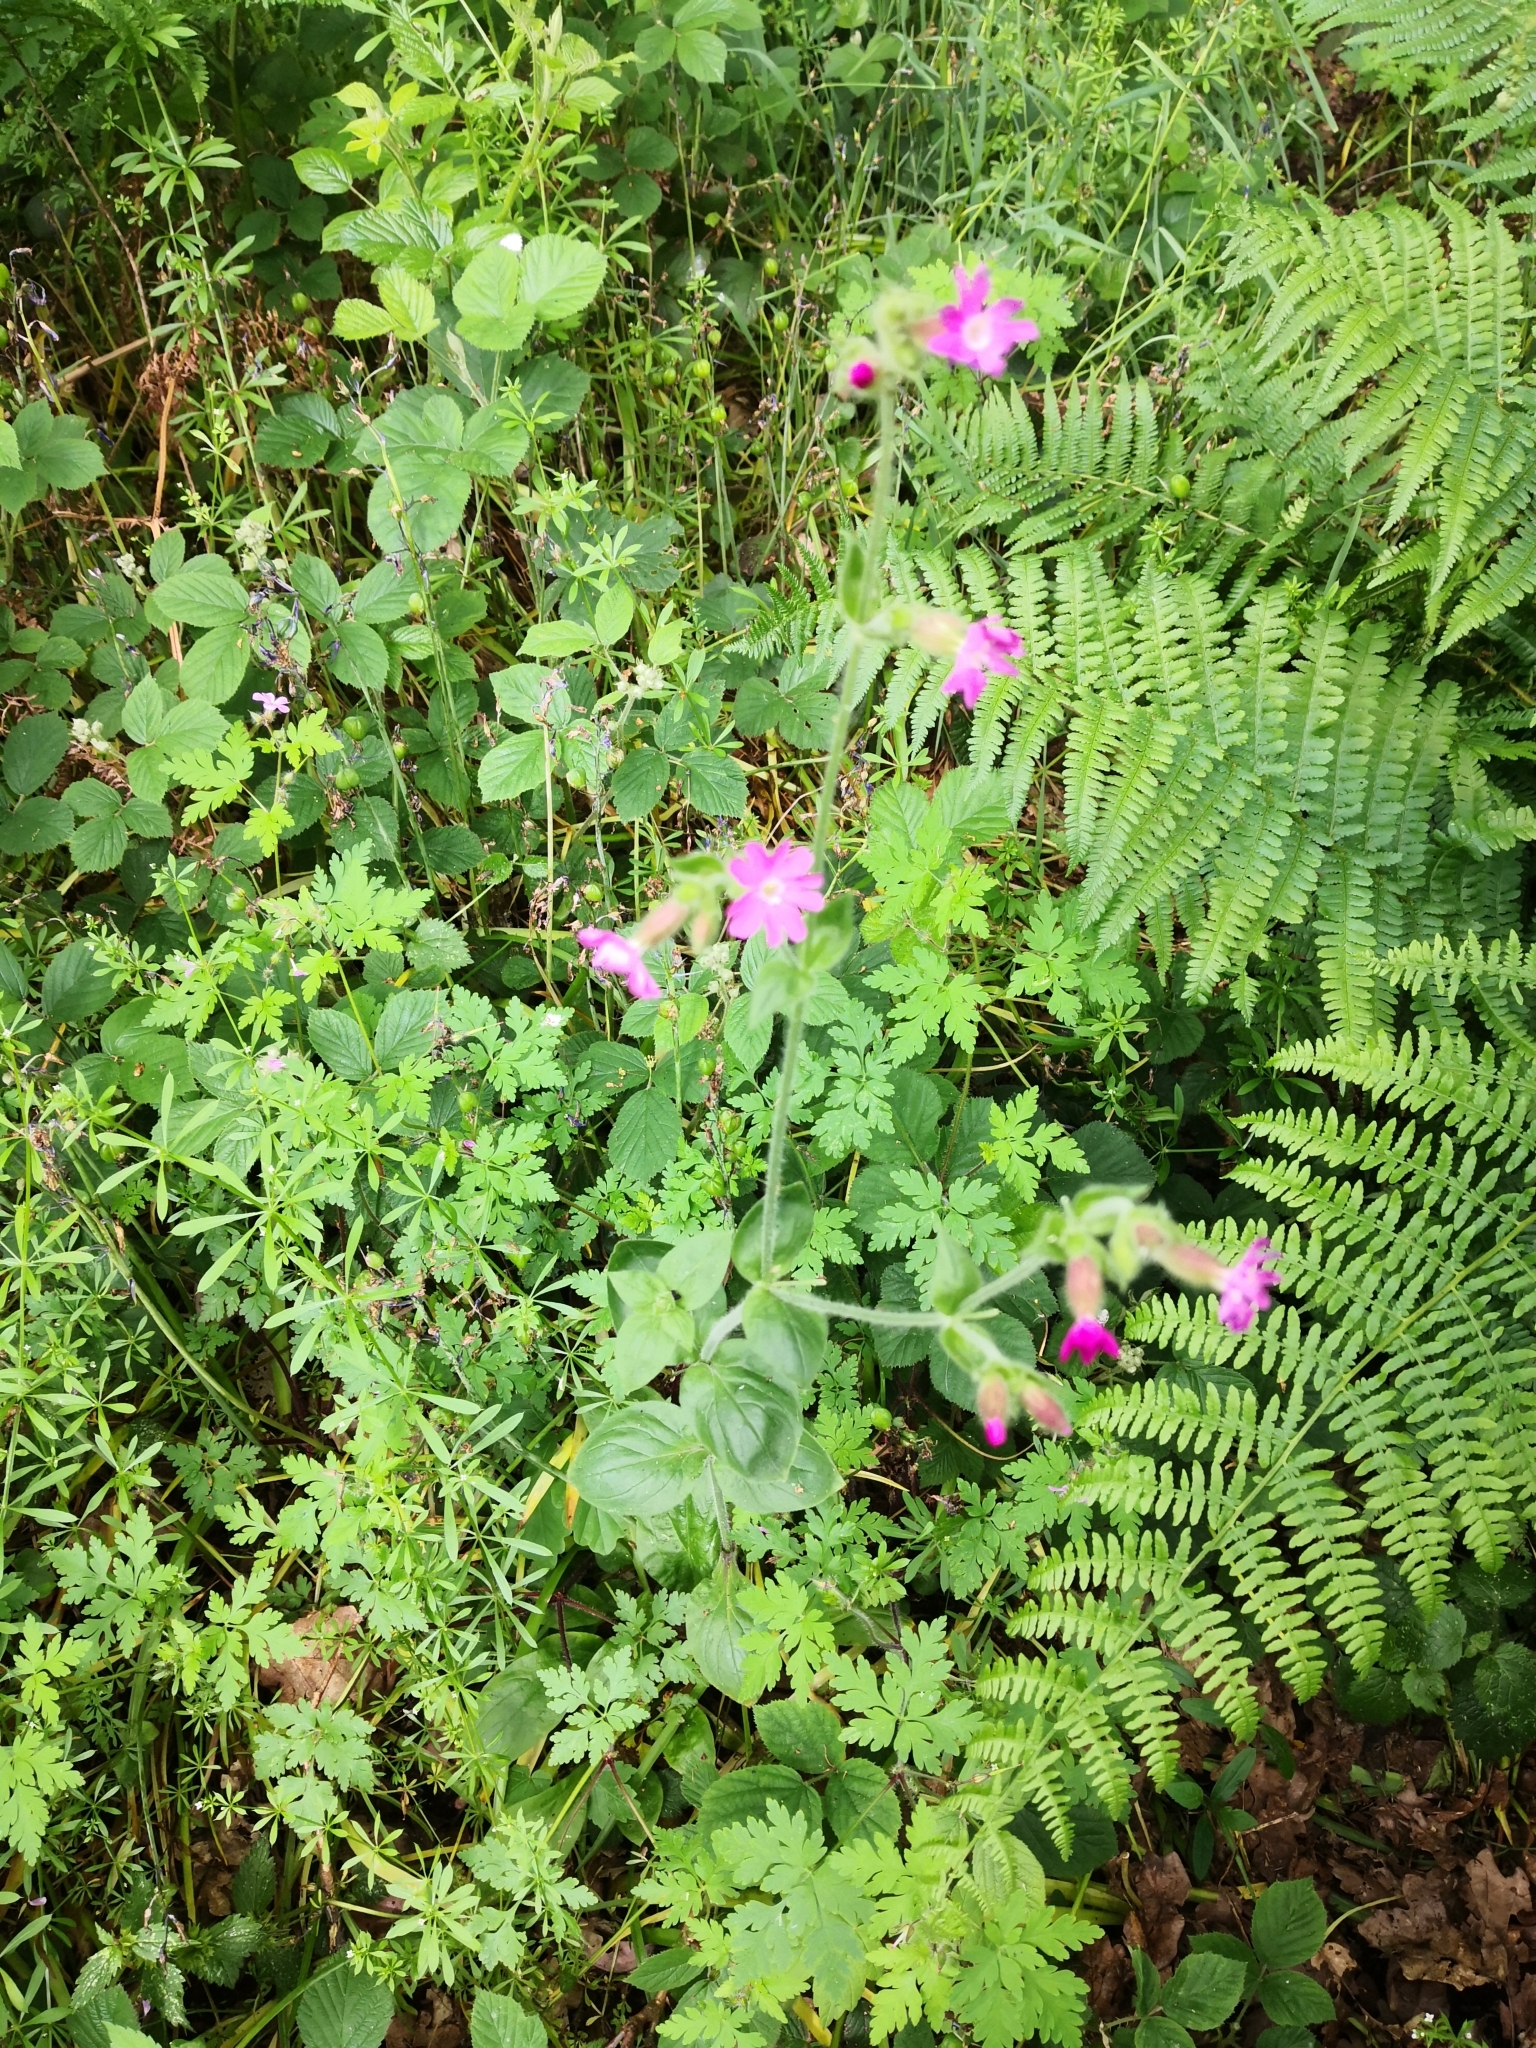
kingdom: Plantae
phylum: Tracheophyta
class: Magnoliopsida
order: Caryophyllales
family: Caryophyllaceae
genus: Silene
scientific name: Silene dioica
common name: Red campion
